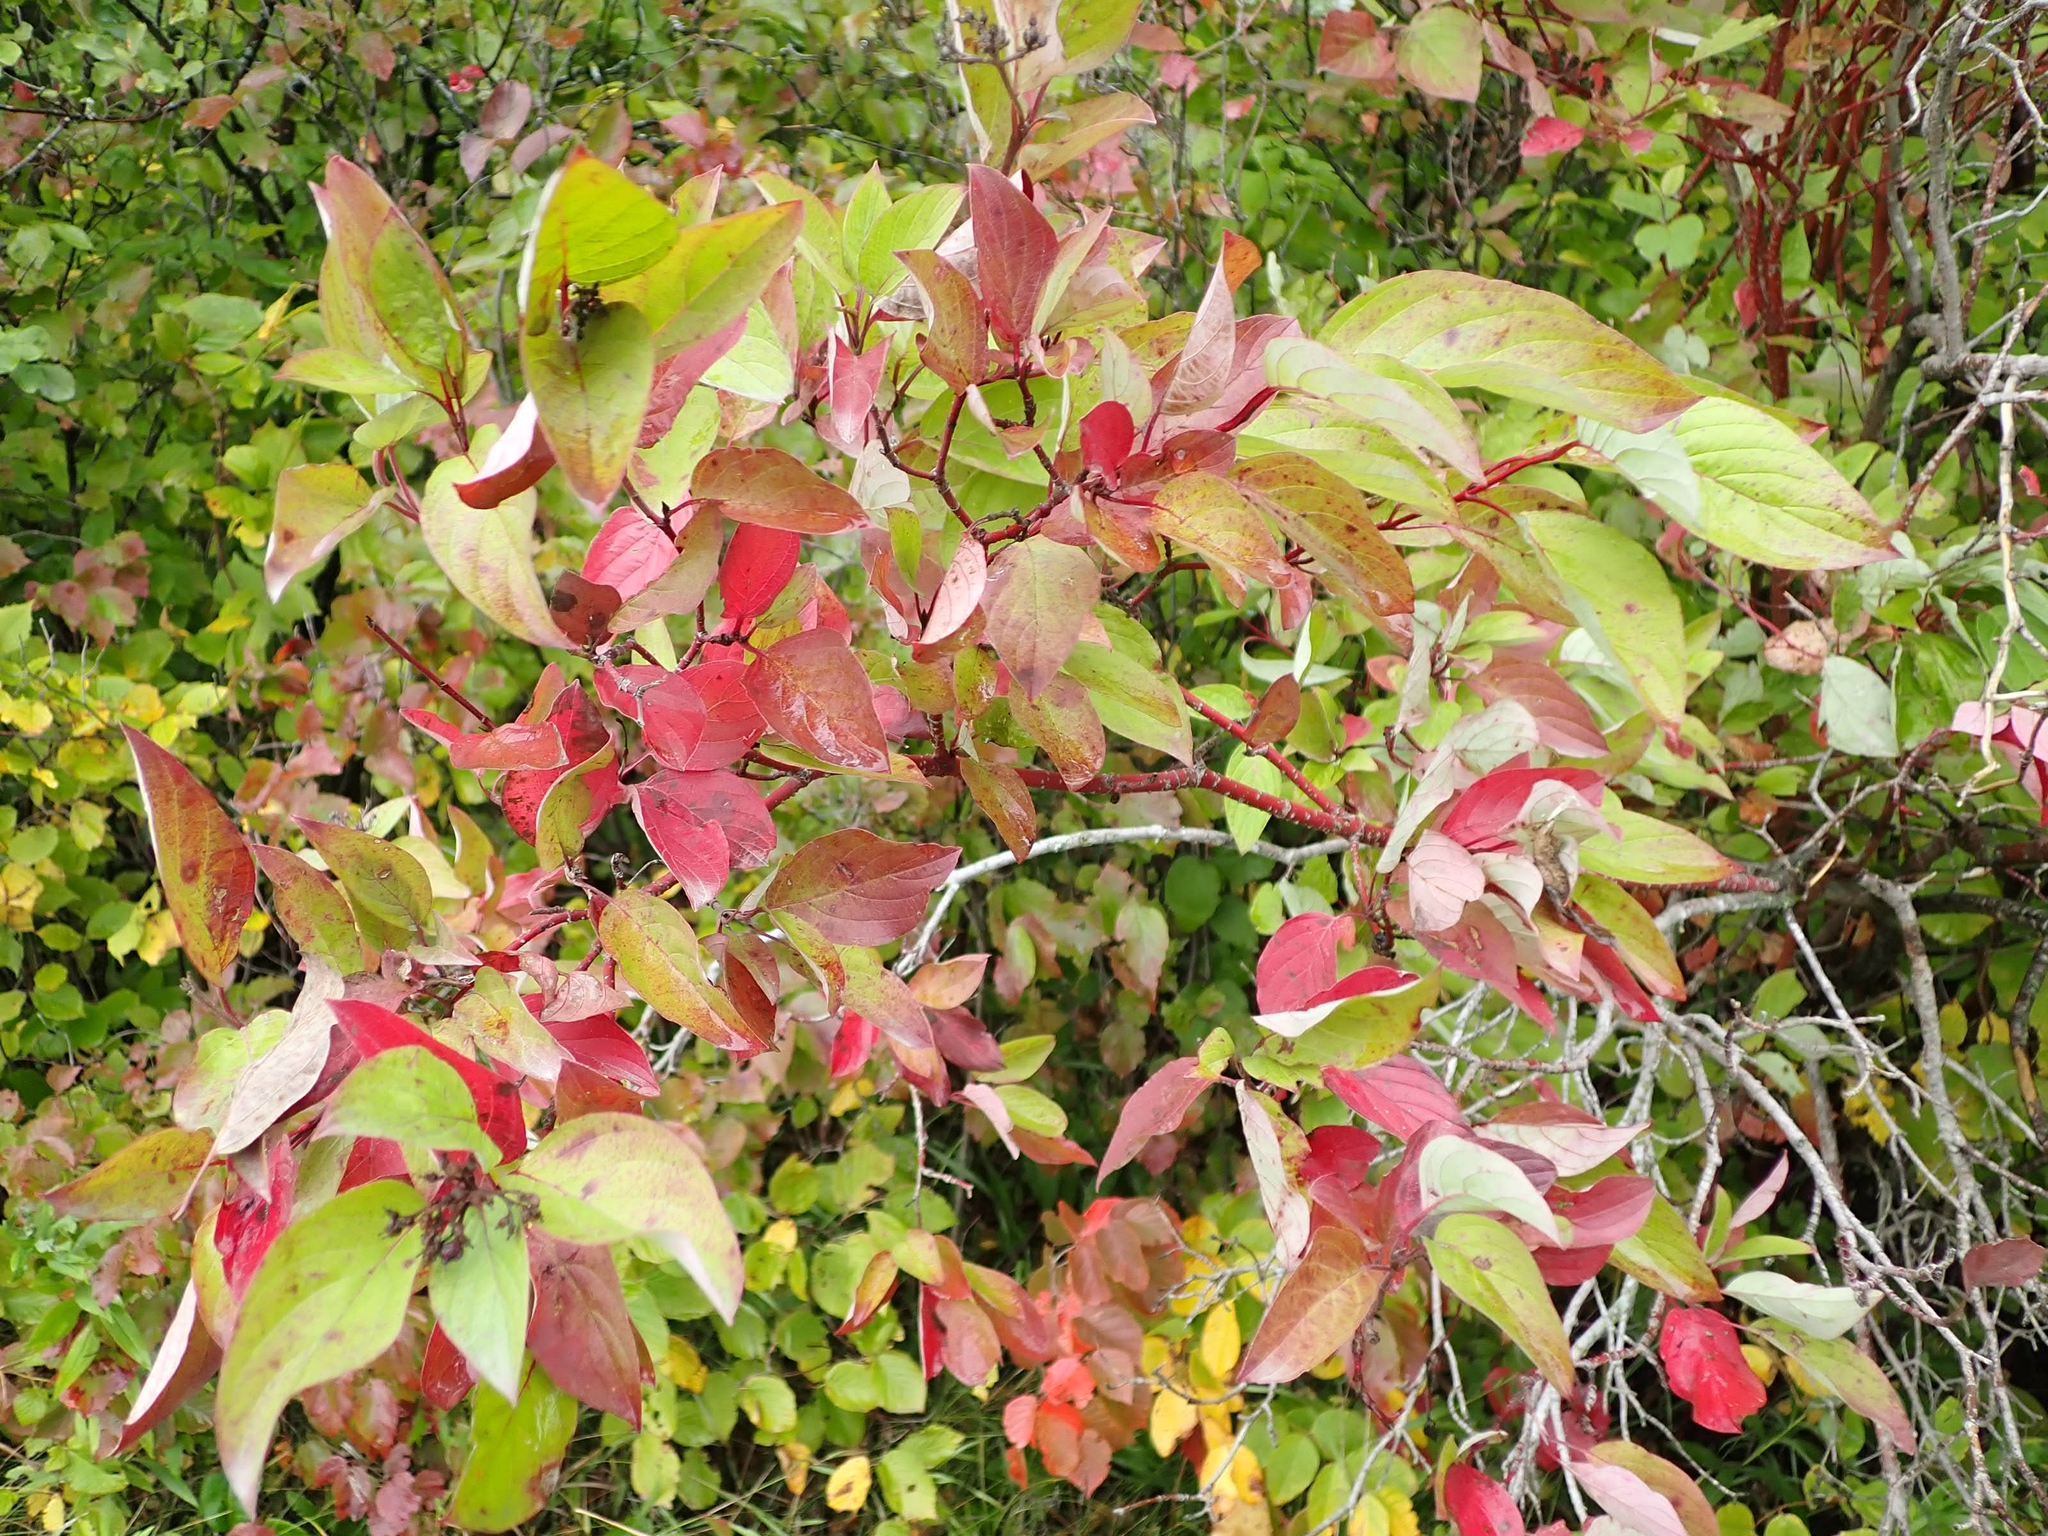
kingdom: Plantae
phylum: Tracheophyta
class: Magnoliopsida
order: Cornales
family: Cornaceae
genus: Cornus
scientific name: Cornus sericea
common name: Red-osier dogwood
